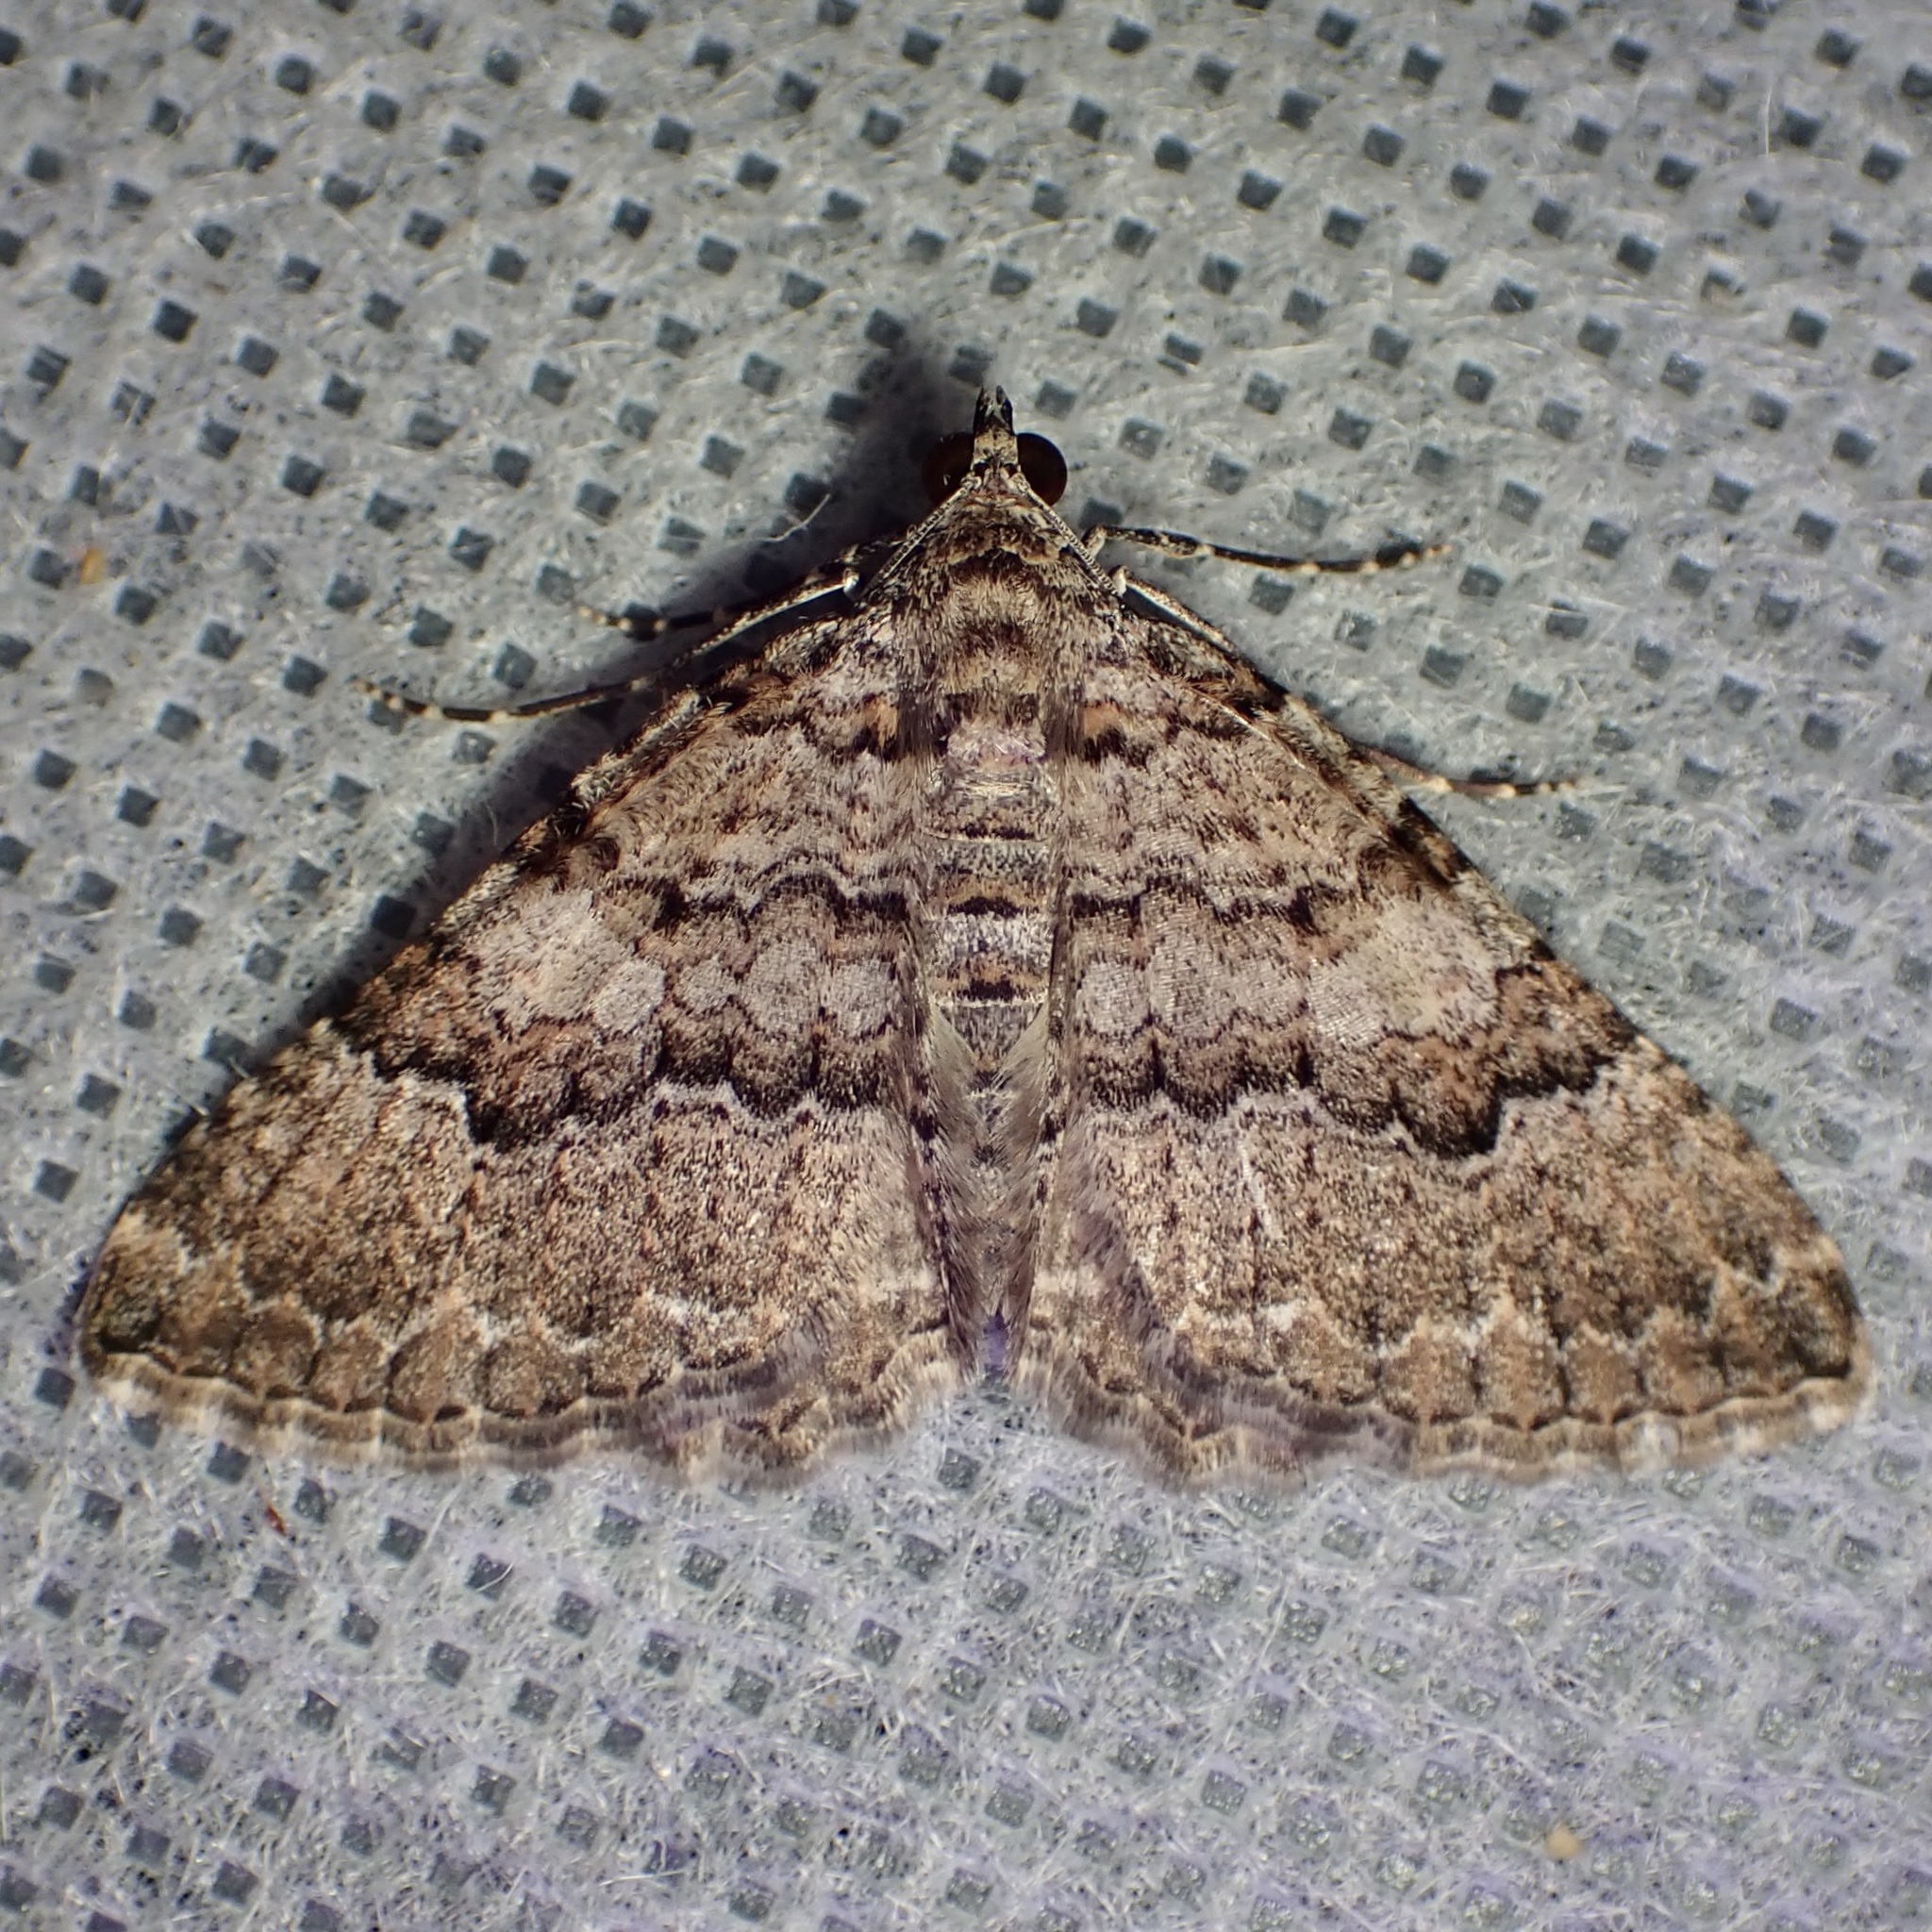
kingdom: Animalia
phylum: Arthropoda
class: Insecta
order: Lepidoptera
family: Geometridae
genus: Archirhoe
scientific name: Archirhoe neomexicana
